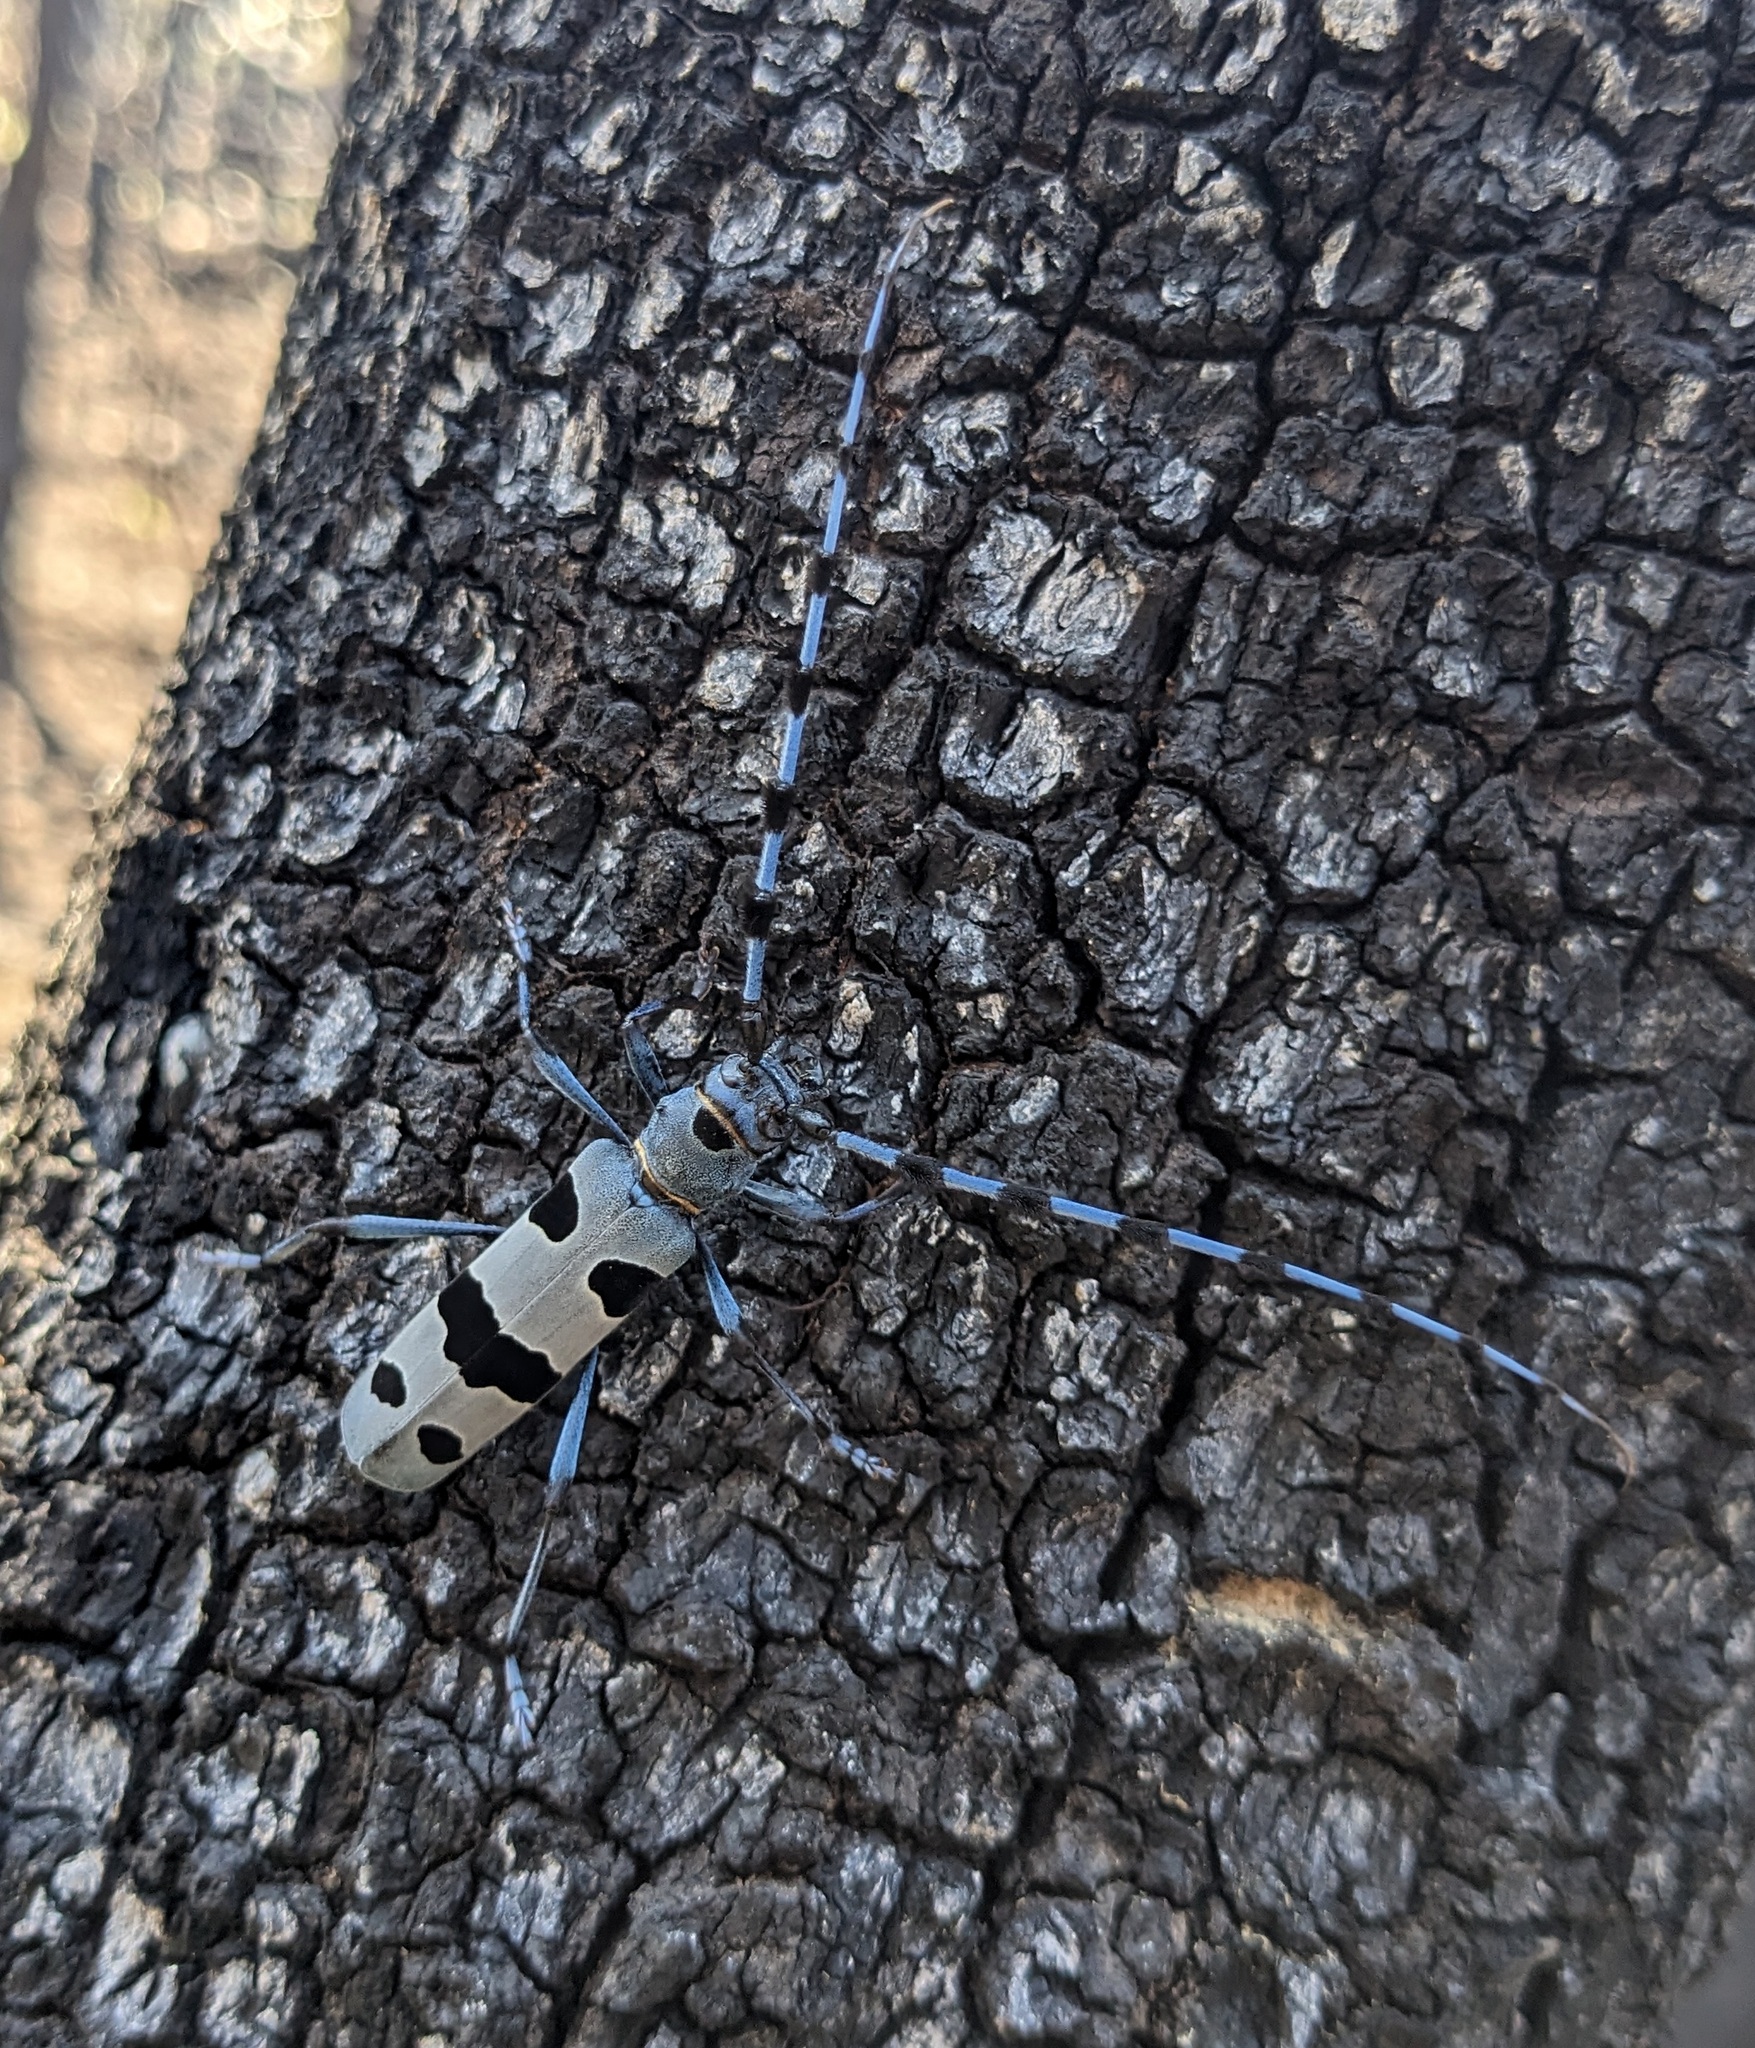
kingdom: Animalia
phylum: Arthropoda
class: Insecta
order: Coleoptera
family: Cerambycidae
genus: Rosalia
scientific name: Rosalia alpina
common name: Rosalia longicorn
